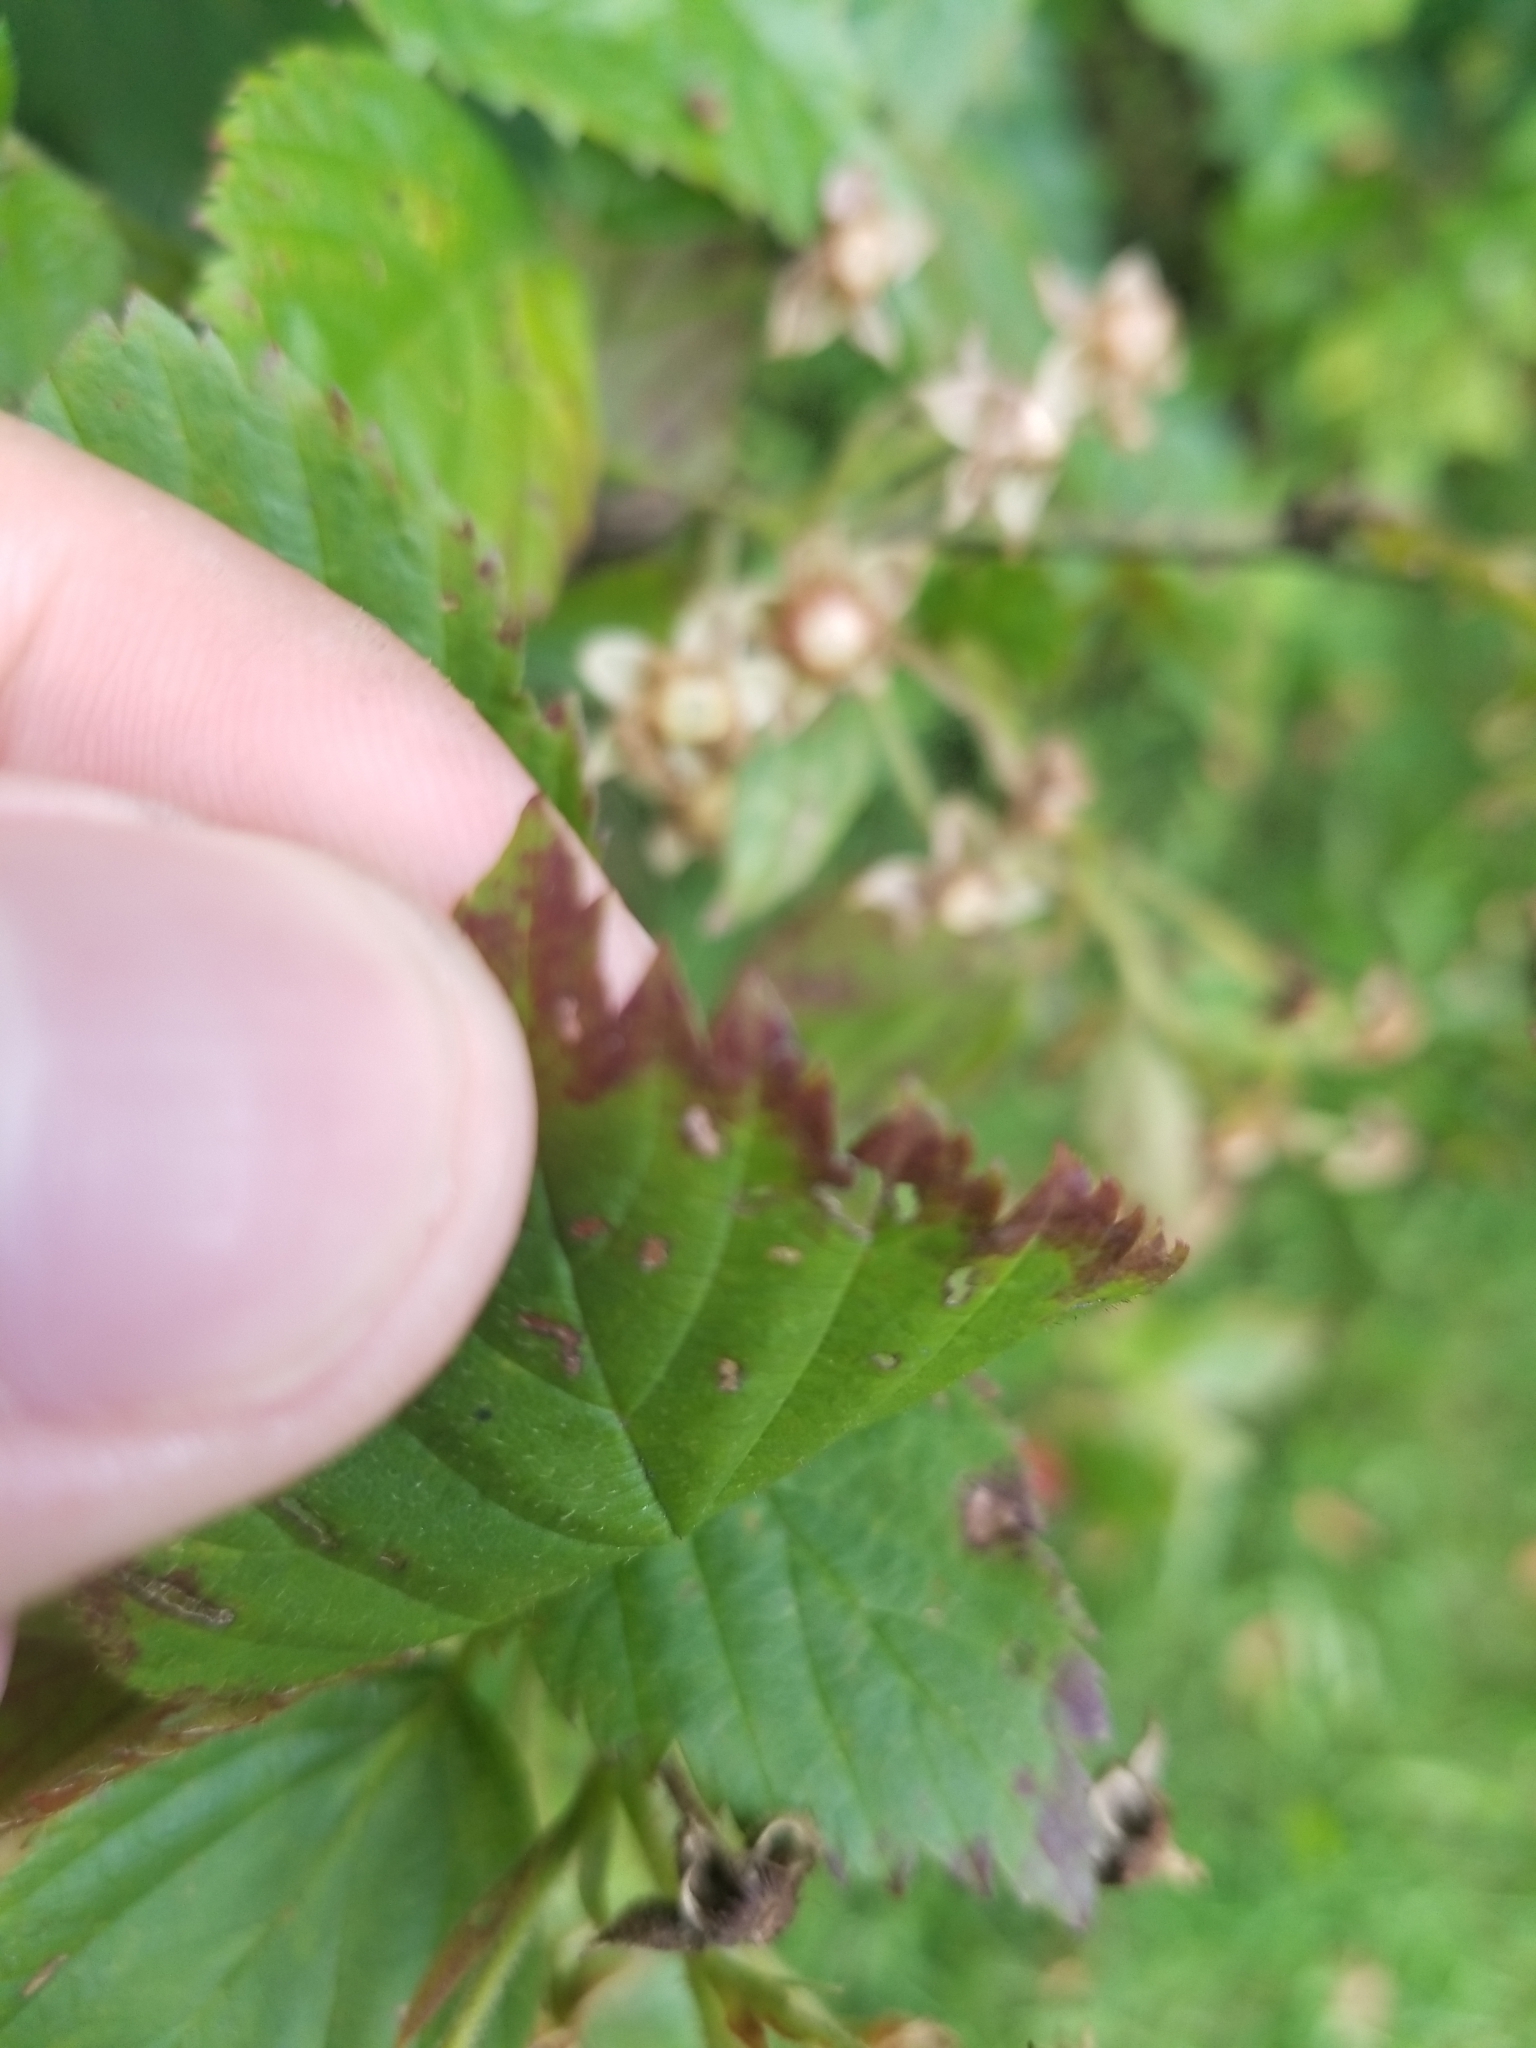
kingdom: Plantae
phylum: Tracheophyta
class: Magnoliopsida
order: Rosales
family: Rosaceae
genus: Rubus
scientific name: Rubus allegheniensis
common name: Allegheny blackberry
